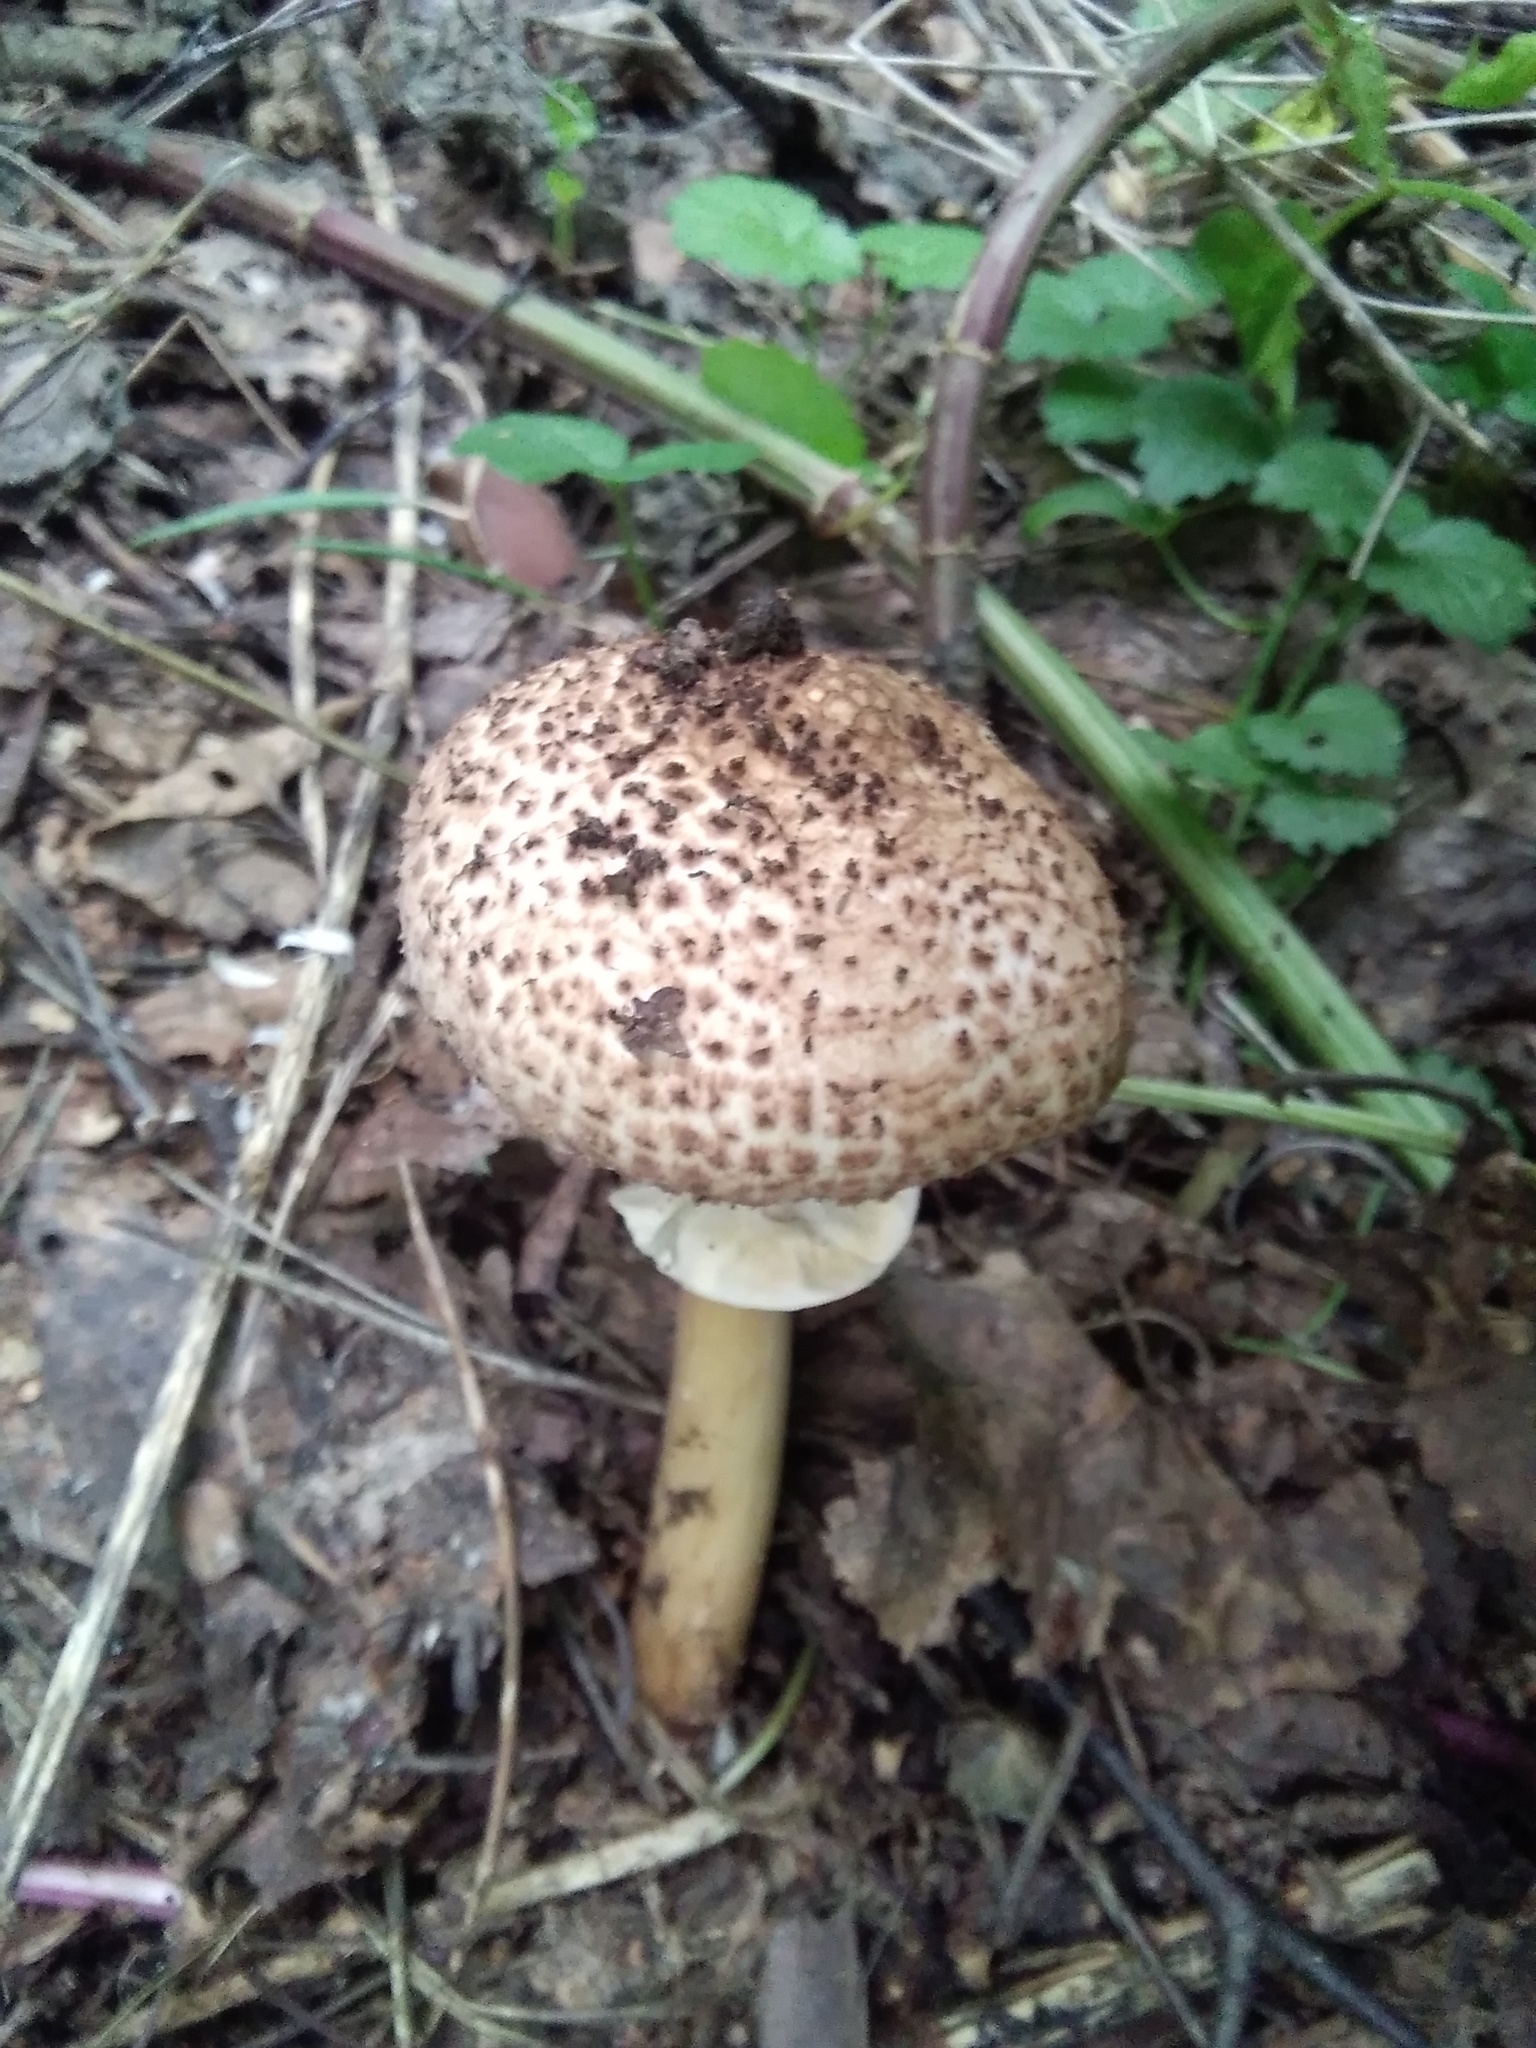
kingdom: Fungi
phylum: Basidiomycota
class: Agaricomycetes
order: Agaricales
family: Agaricaceae
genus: Echinoderma
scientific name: Echinoderma asperum
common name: Freckled dapperling
